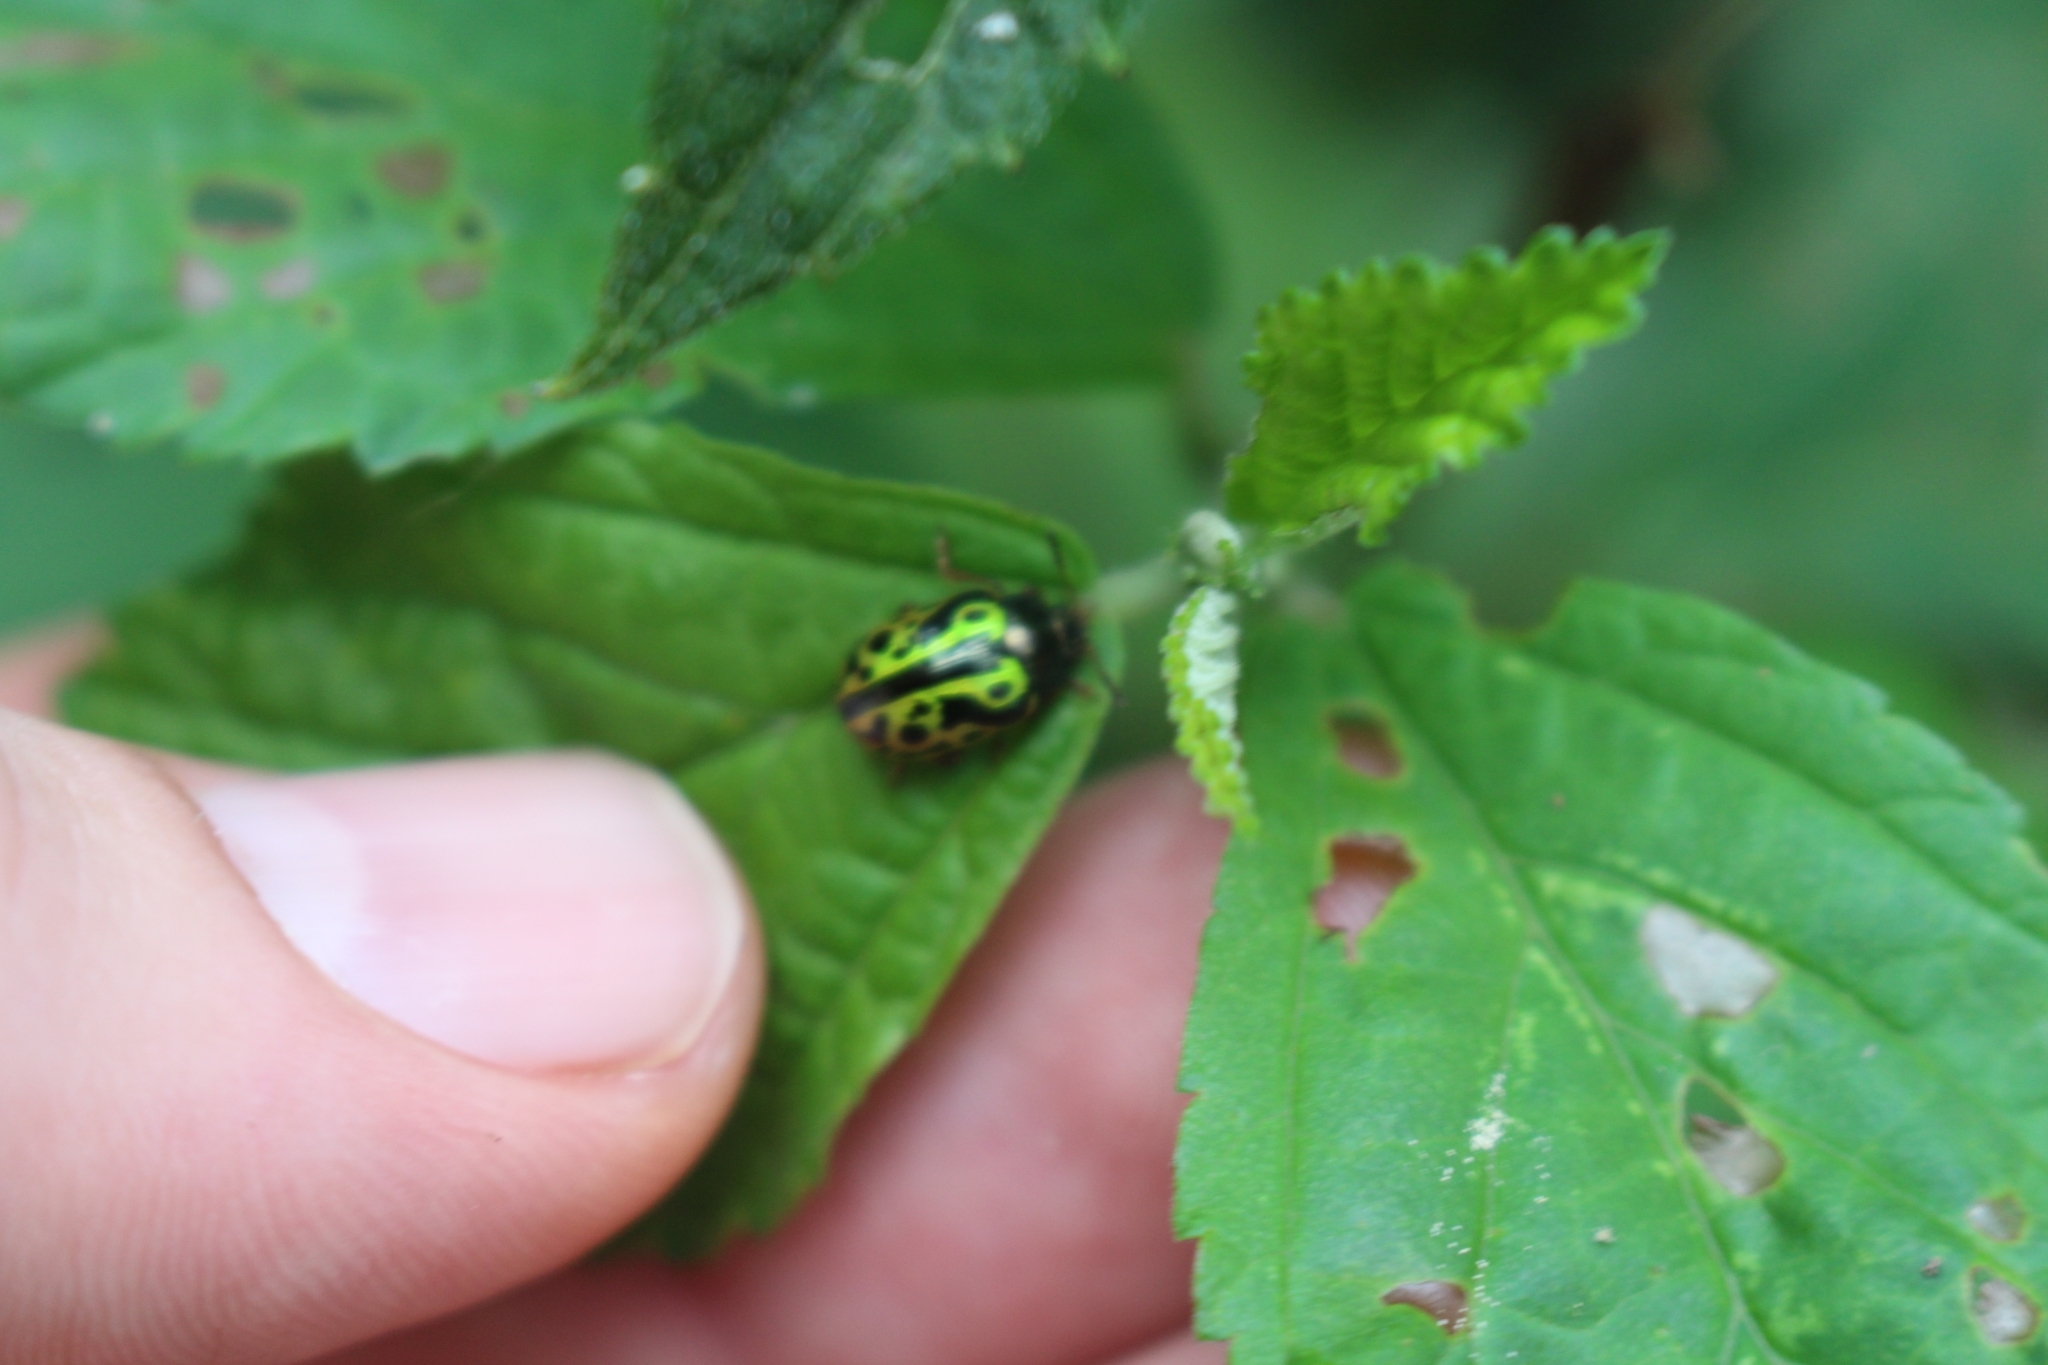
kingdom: Animalia
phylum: Arthropoda
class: Insecta
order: Coleoptera
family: Chrysomelidae
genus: Calligrapha
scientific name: Calligrapha fulvipes
